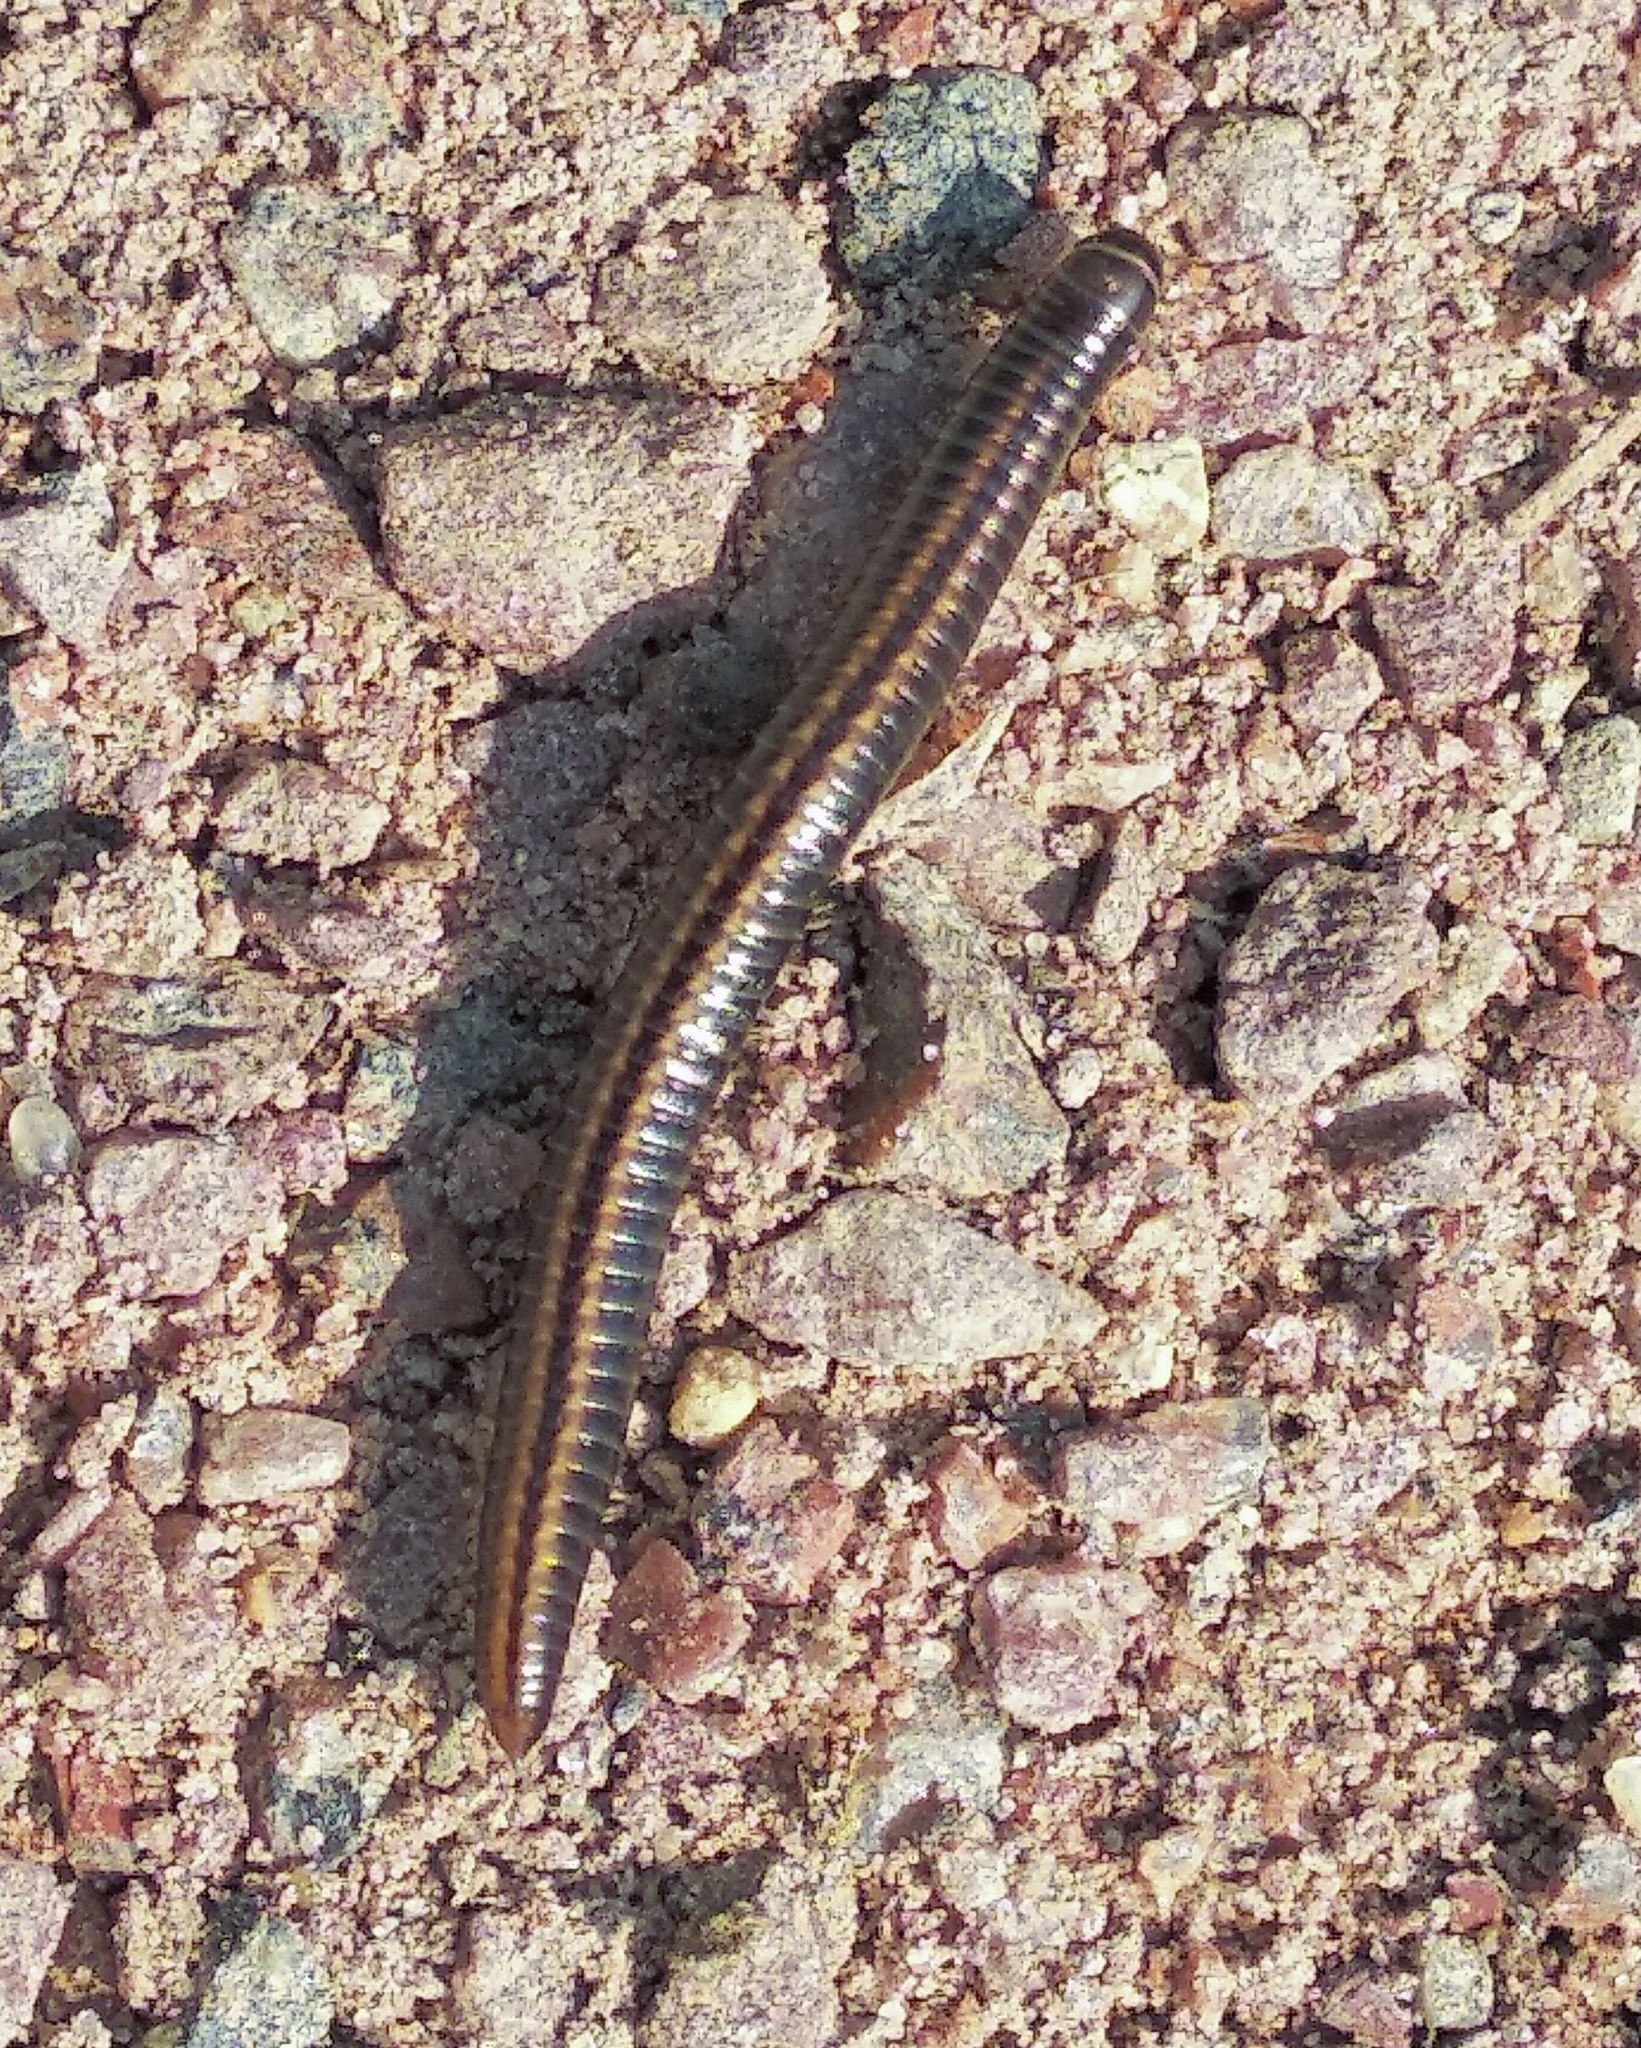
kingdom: Animalia
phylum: Arthropoda
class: Diplopoda
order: Julida
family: Julidae
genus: Ommatoiulus
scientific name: Ommatoiulus sabulosus
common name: Striped millipede
